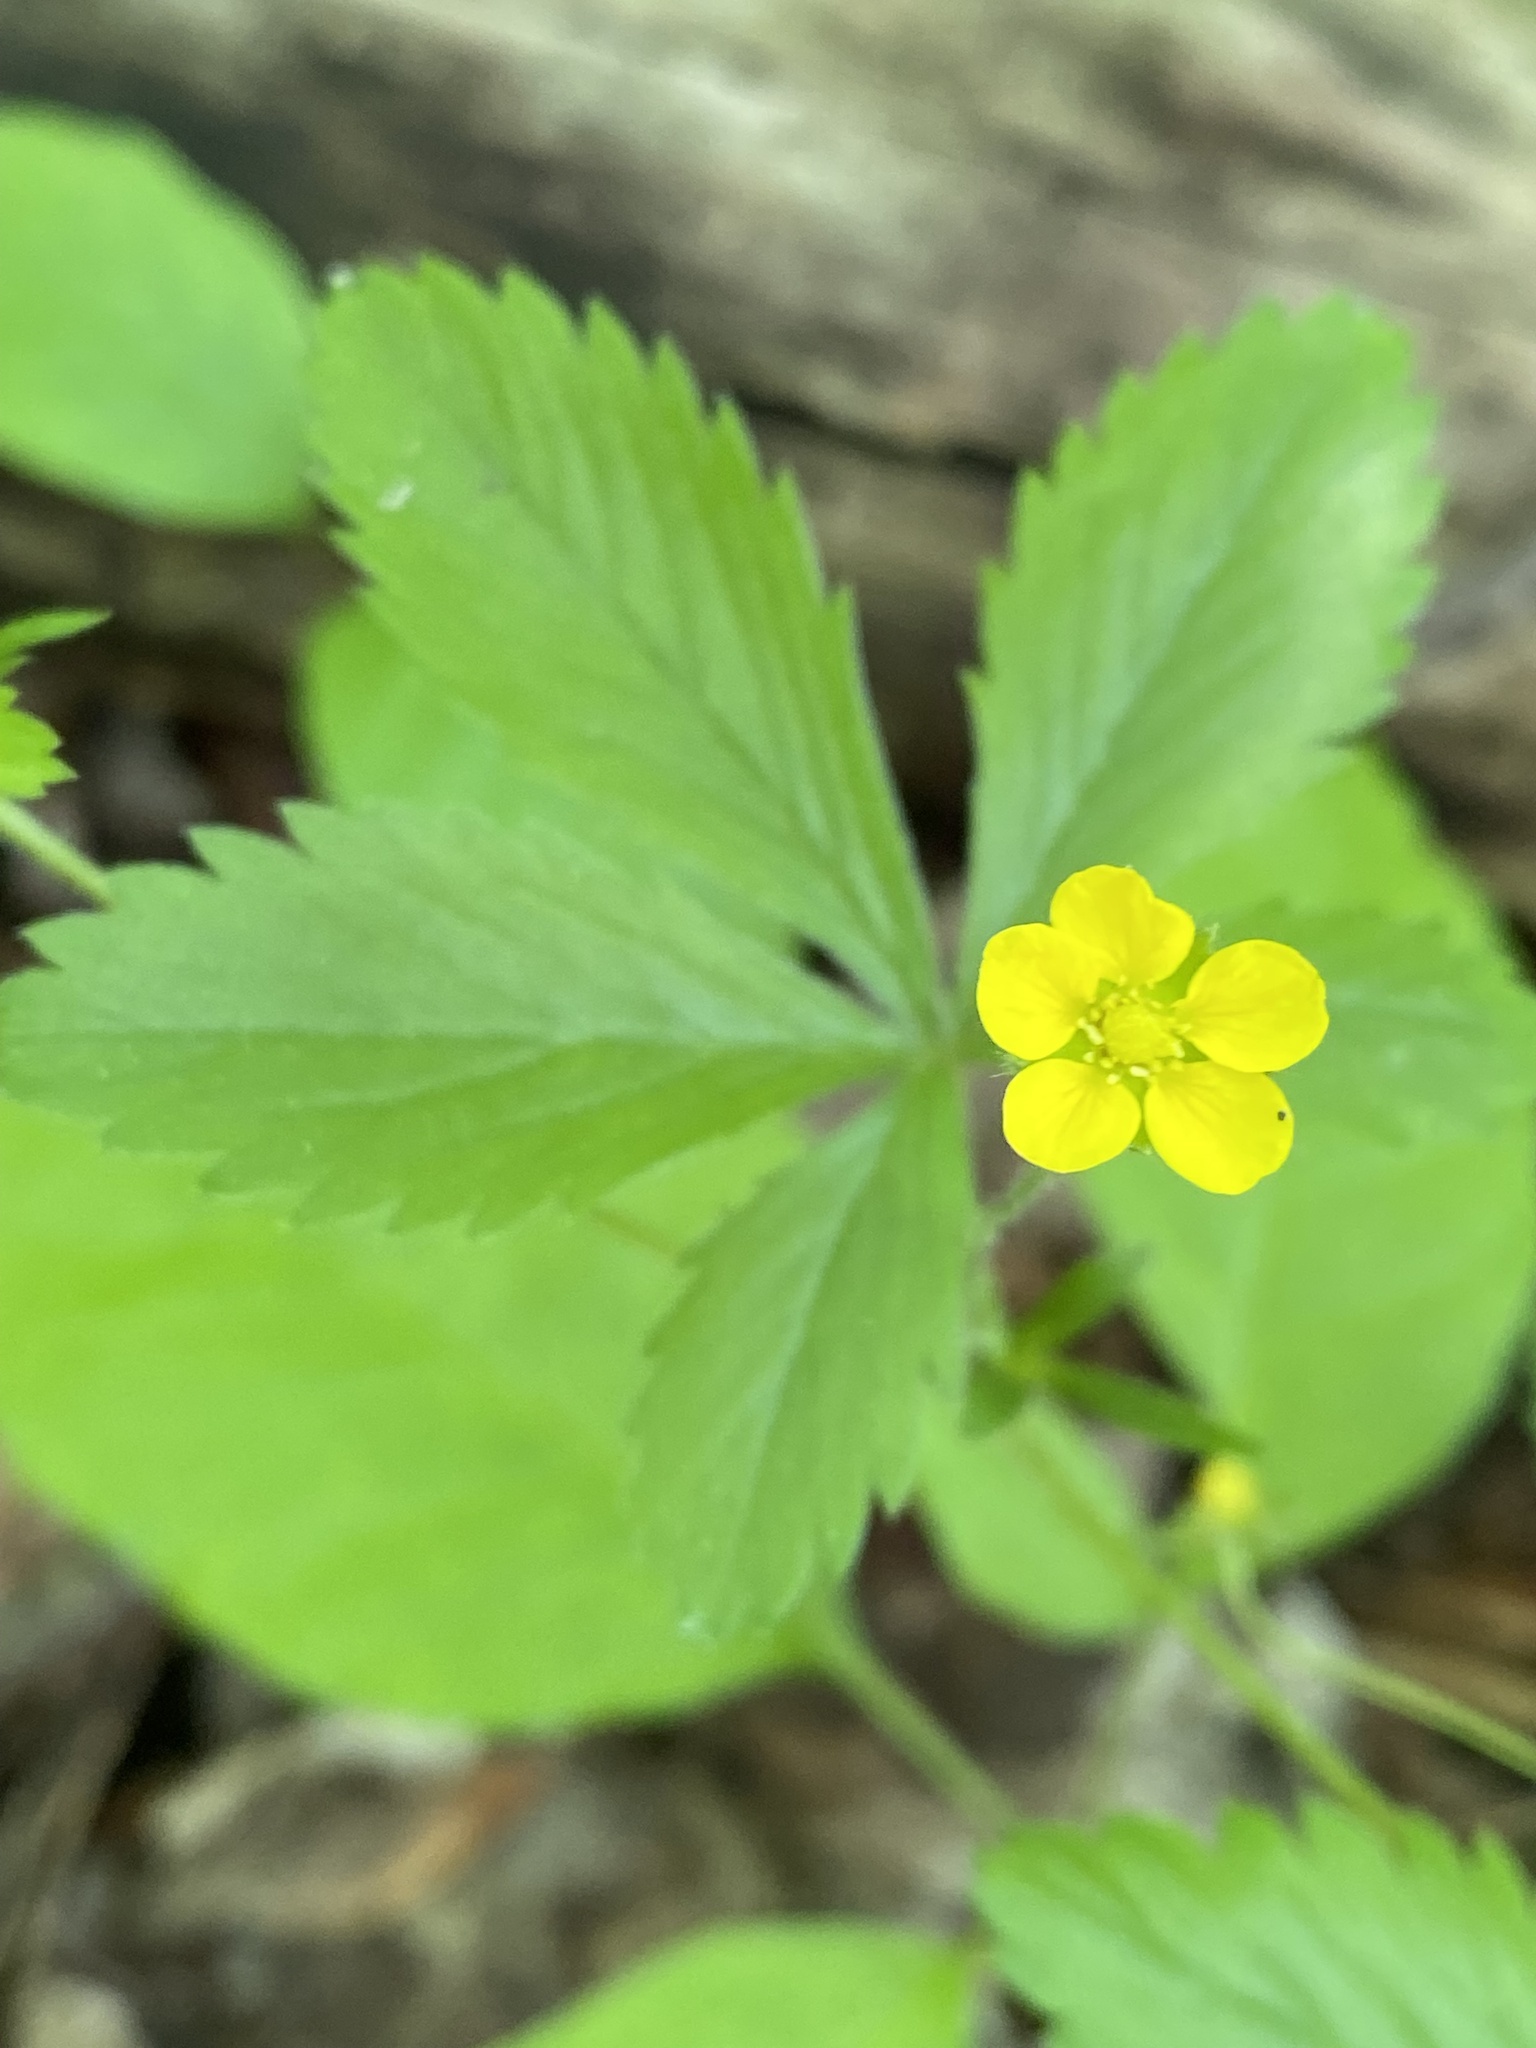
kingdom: Plantae
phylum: Tracheophyta
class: Magnoliopsida
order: Rosales
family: Rosaceae
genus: Potentilla
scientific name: Potentilla simplex
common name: Old field cinquefoil
